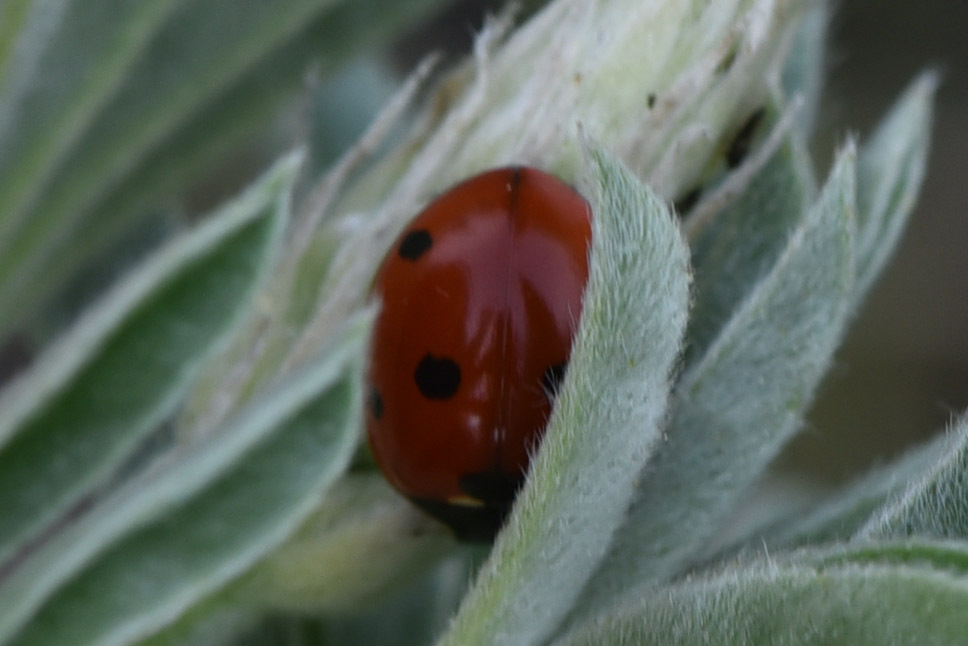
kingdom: Animalia
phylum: Arthropoda
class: Insecta
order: Coleoptera
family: Coccinellidae
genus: Coccinella
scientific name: Coccinella septempunctata
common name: Sevenspotted lady beetle
